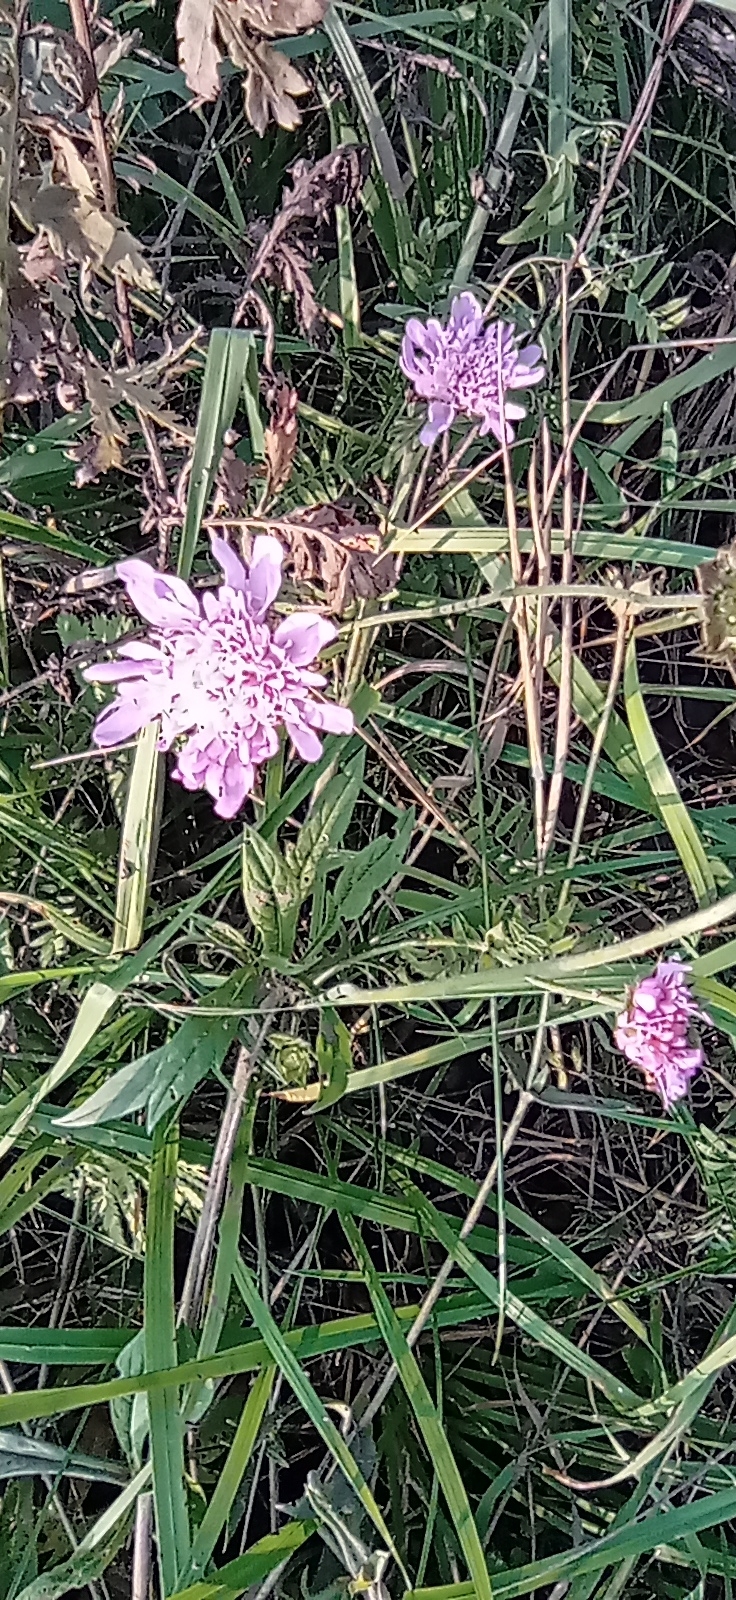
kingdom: Plantae
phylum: Tracheophyta
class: Magnoliopsida
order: Dipsacales
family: Caprifoliaceae
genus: Knautia
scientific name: Knautia arvensis
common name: Field scabiosa
